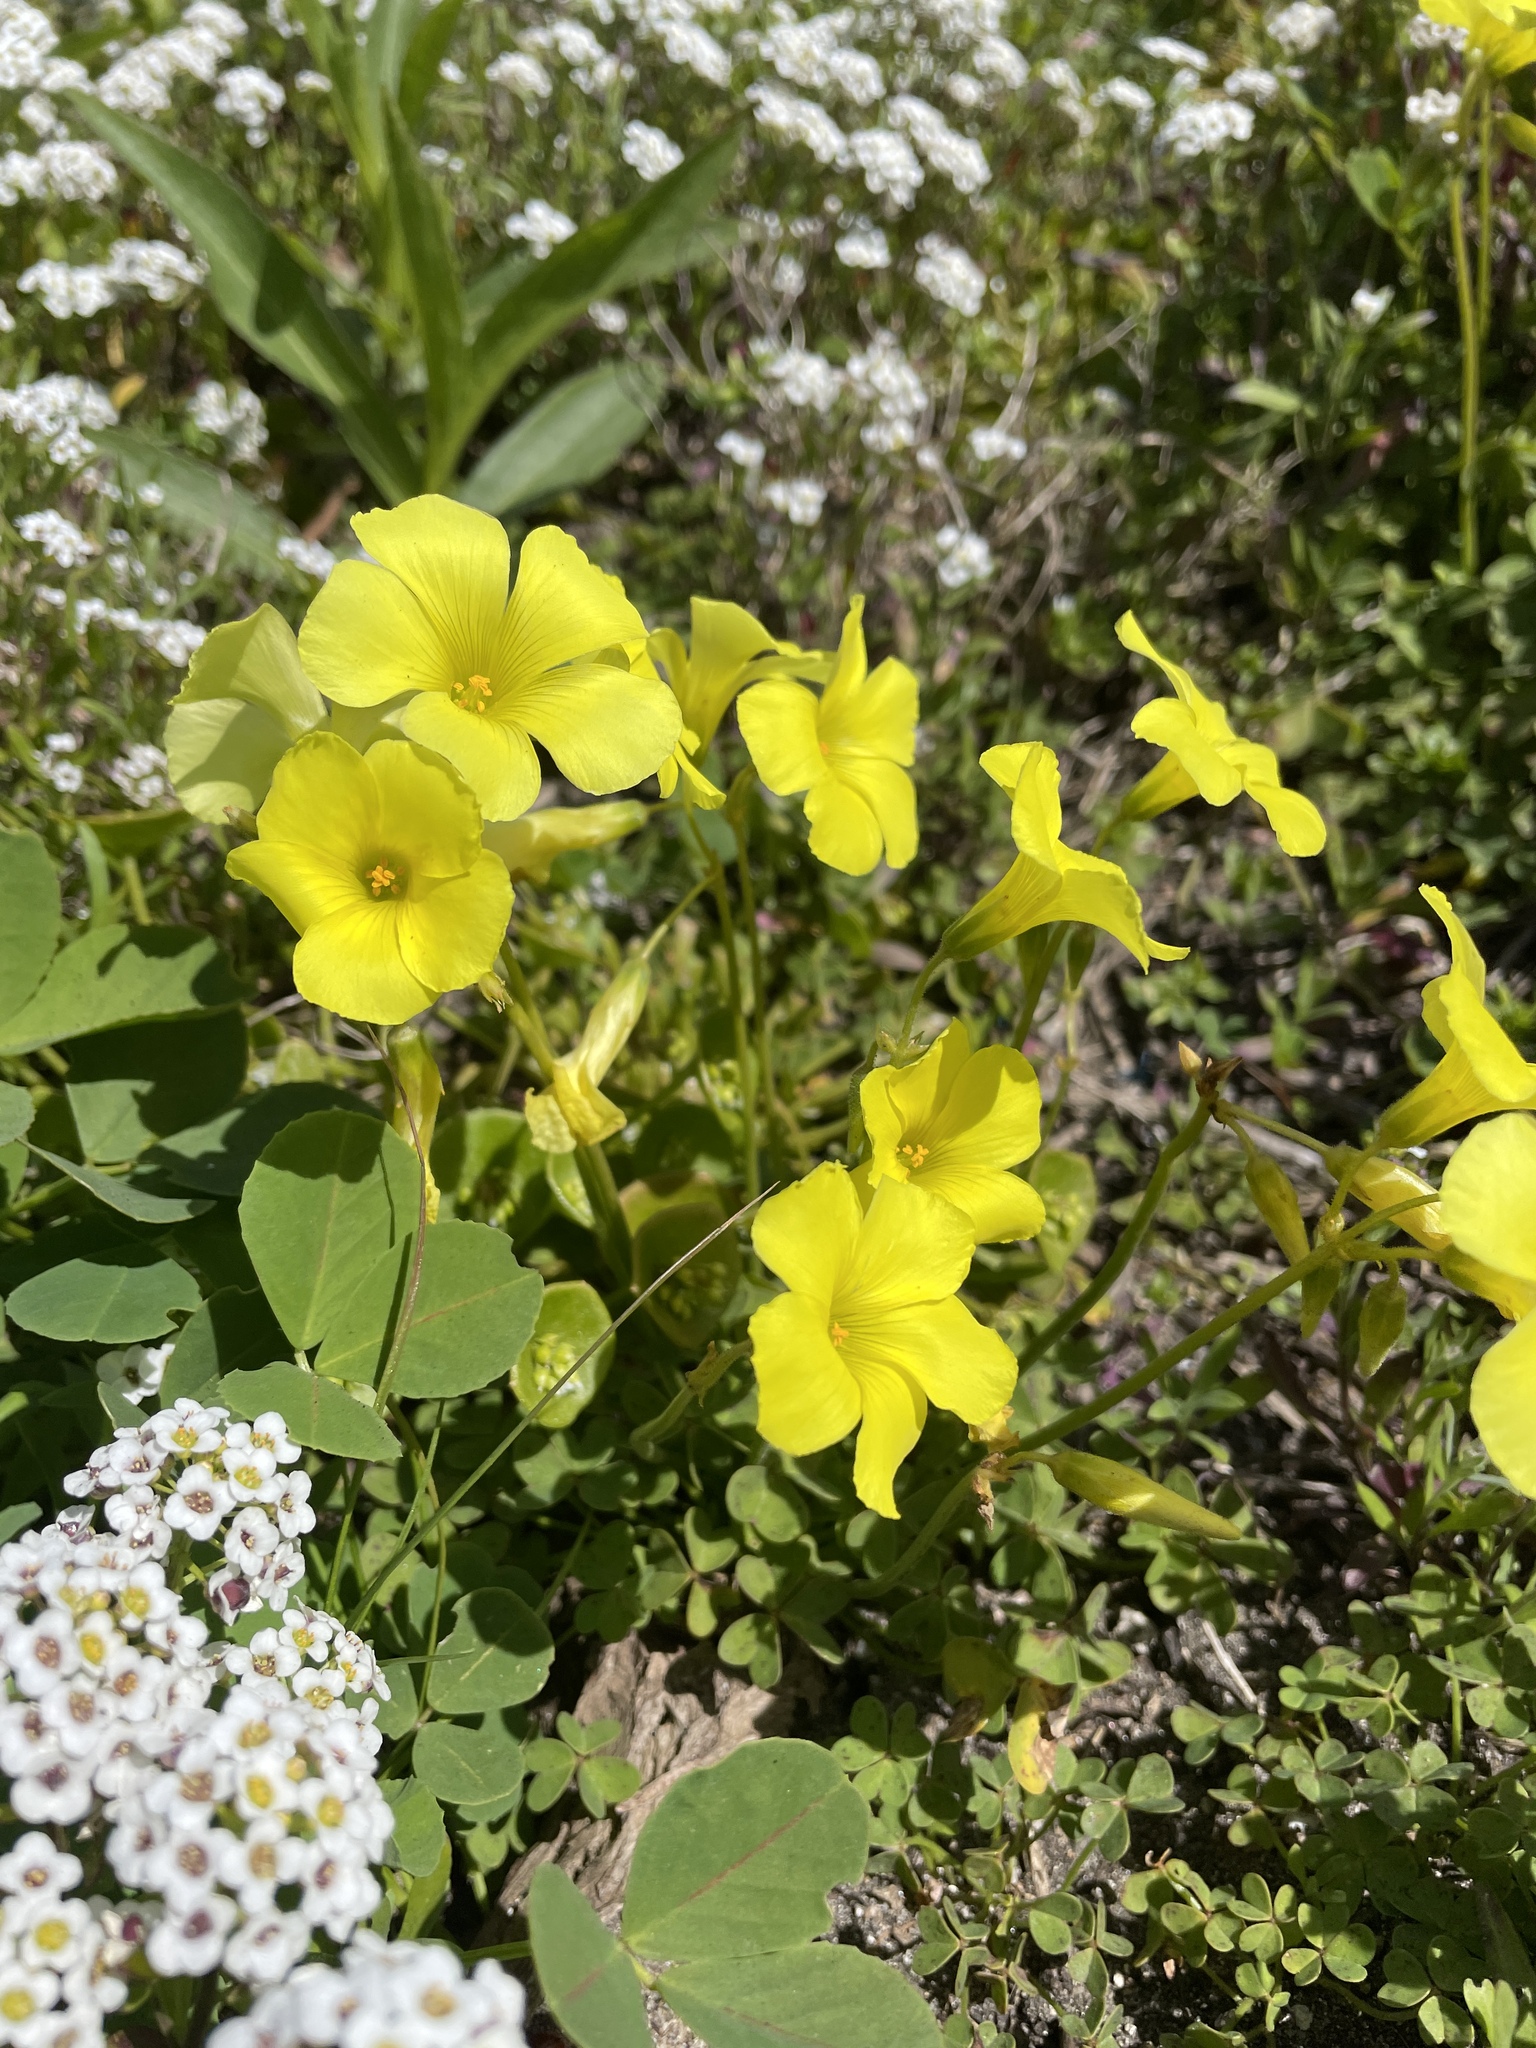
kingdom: Plantae
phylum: Tracheophyta
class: Magnoliopsida
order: Oxalidales
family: Oxalidaceae
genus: Oxalis
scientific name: Oxalis pes-caprae
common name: Bermuda-buttercup
